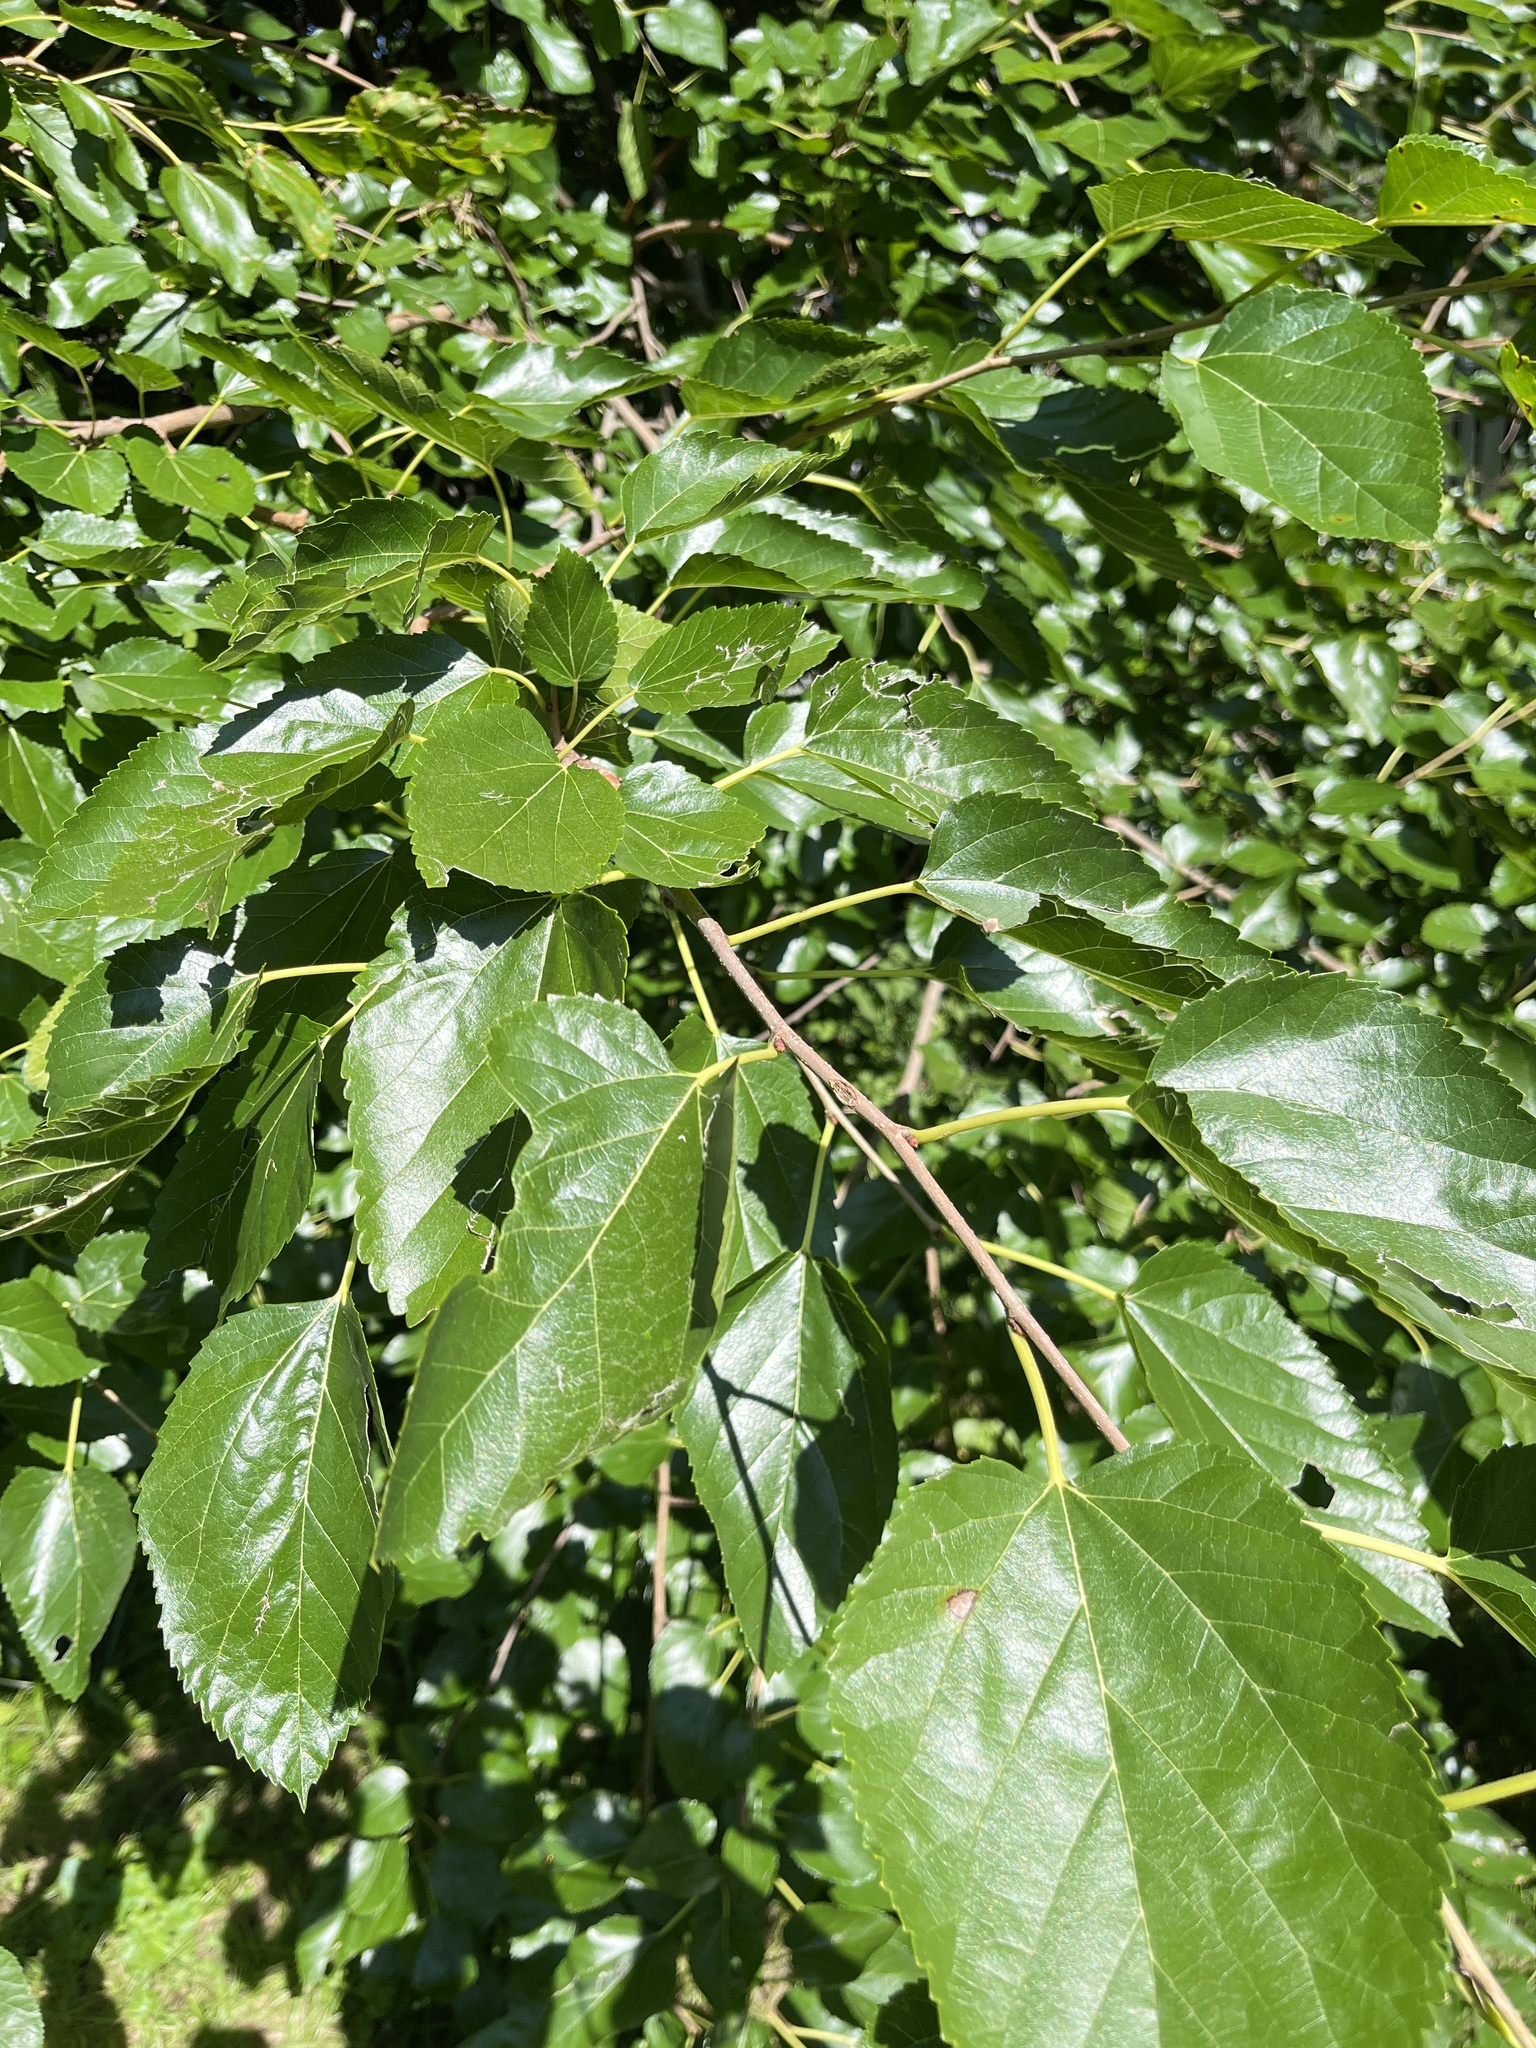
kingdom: Plantae
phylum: Tracheophyta
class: Magnoliopsida
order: Rosales
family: Moraceae
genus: Morus
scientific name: Morus alba
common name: White mulberry
